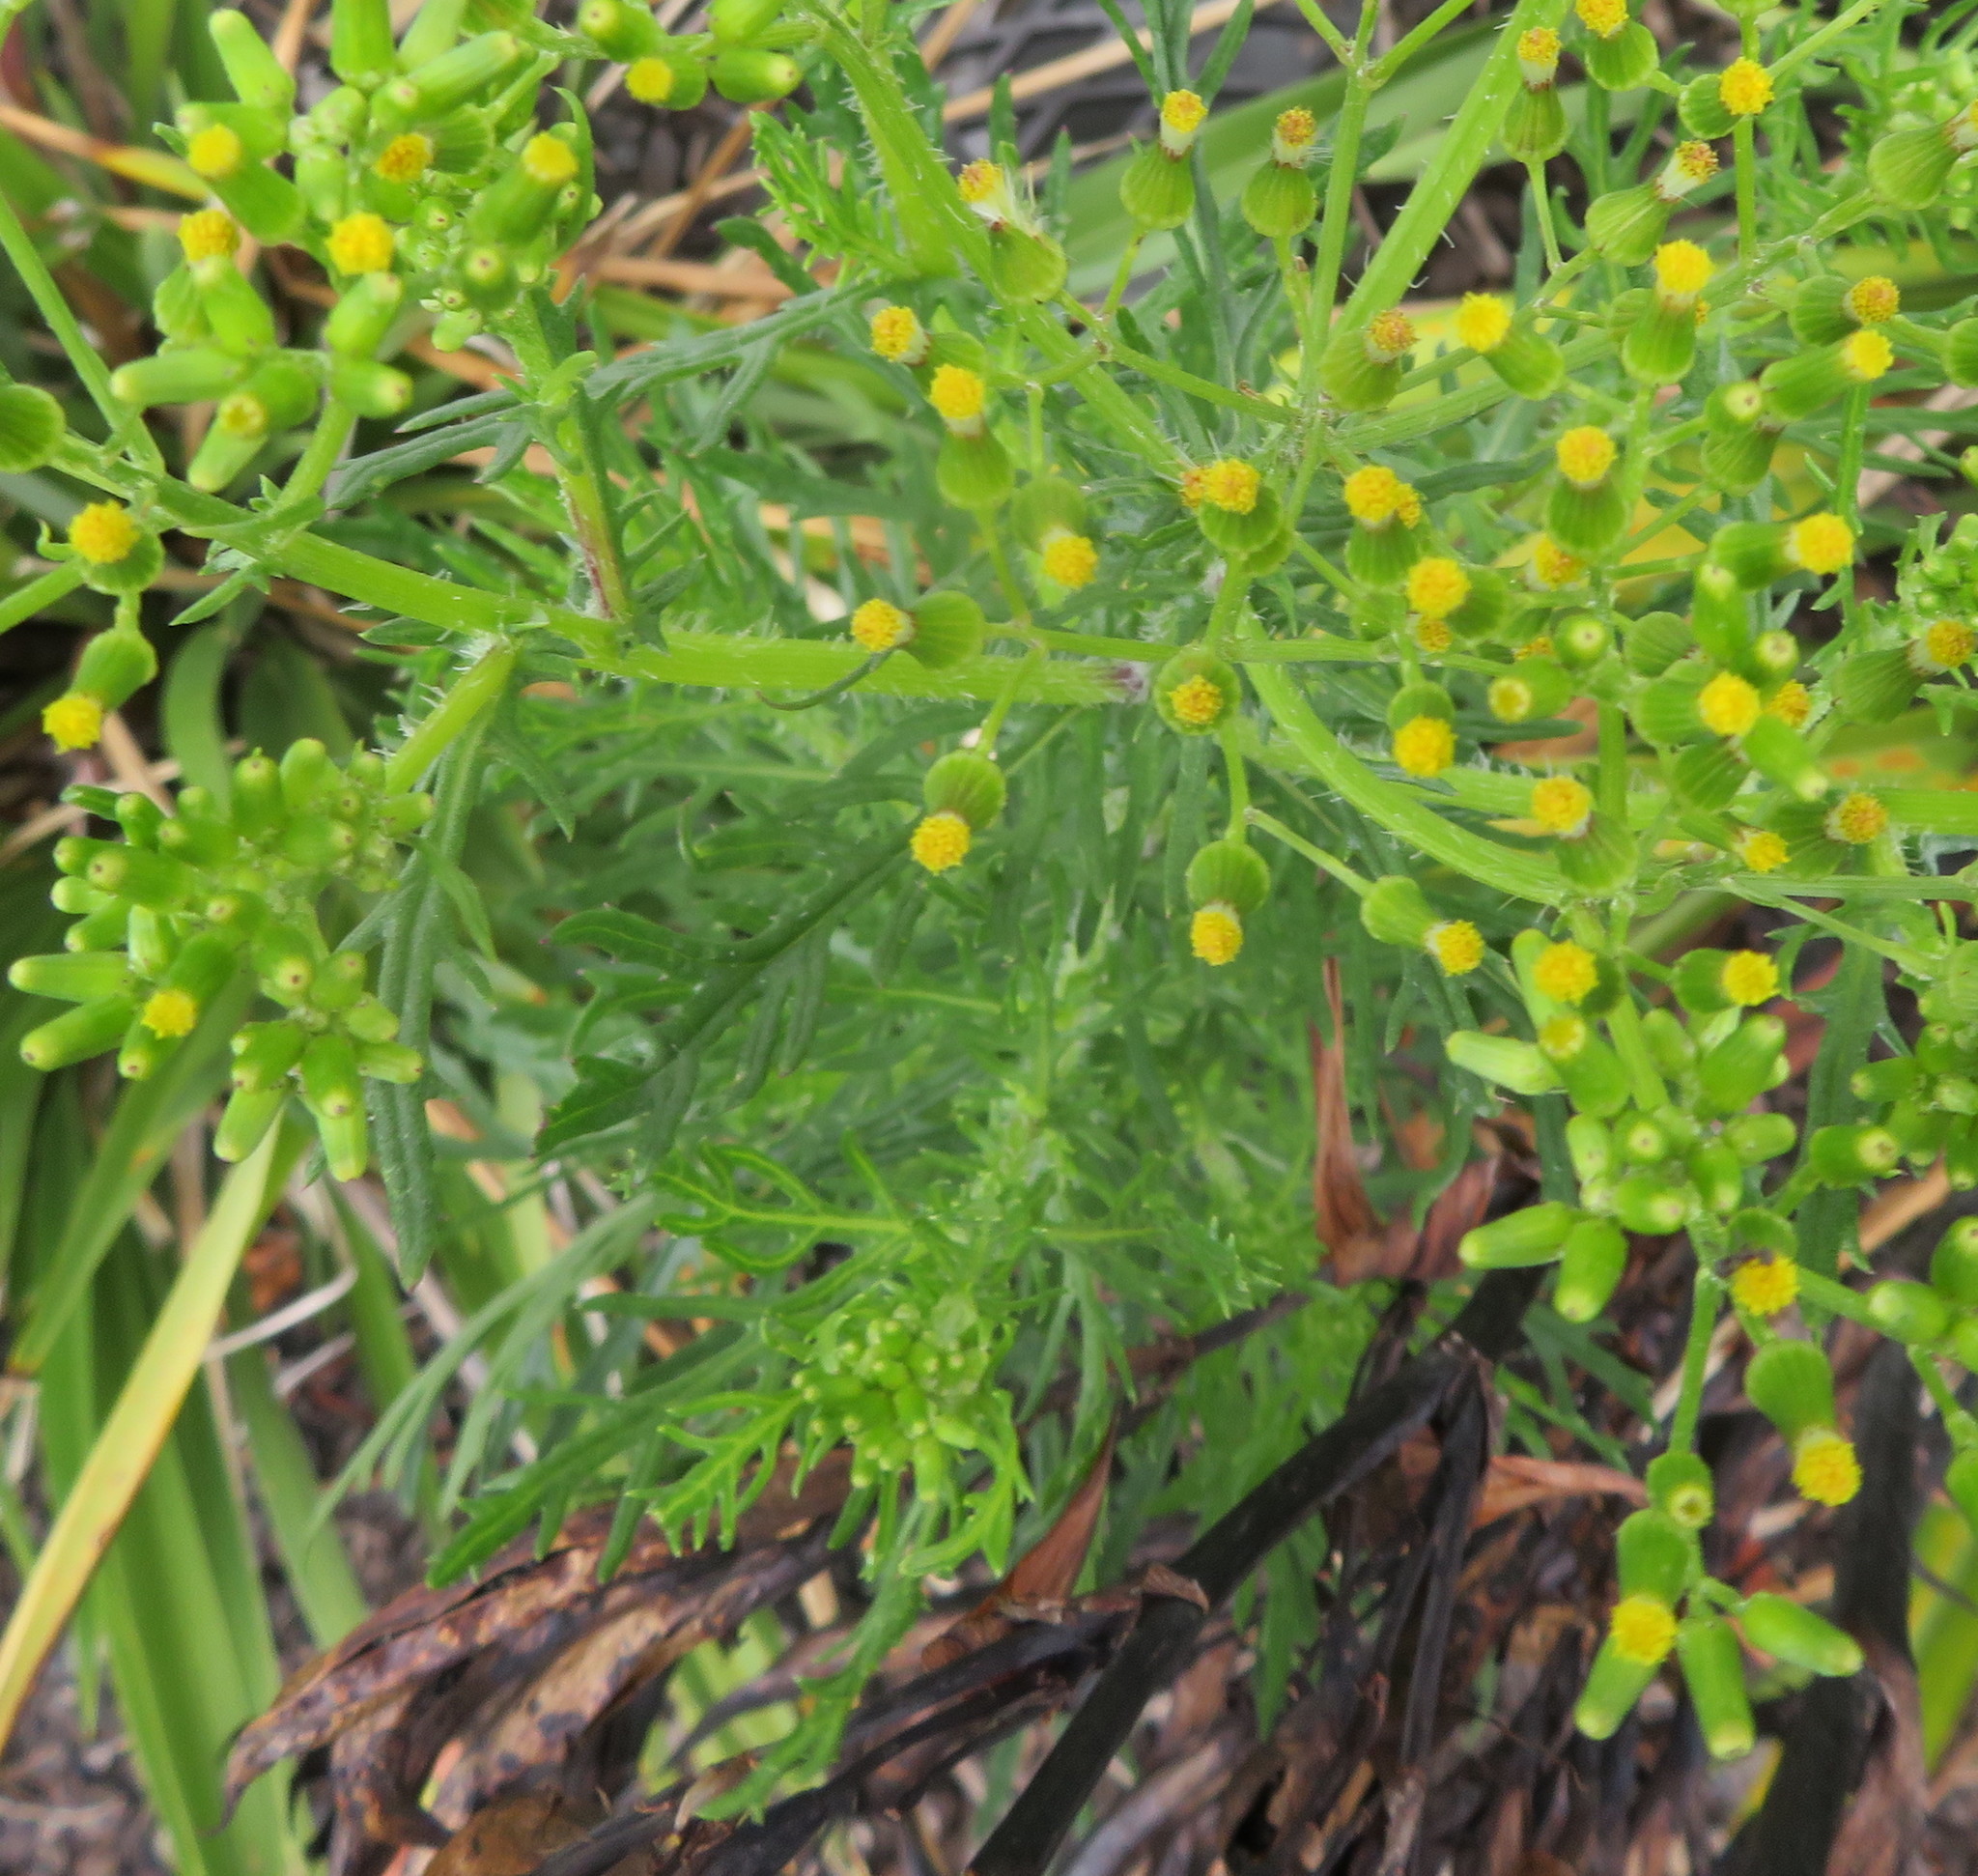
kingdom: Plantae
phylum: Tracheophyta
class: Magnoliopsida
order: Asterales
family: Asteraceae
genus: Senecio
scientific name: Senecio esleri
